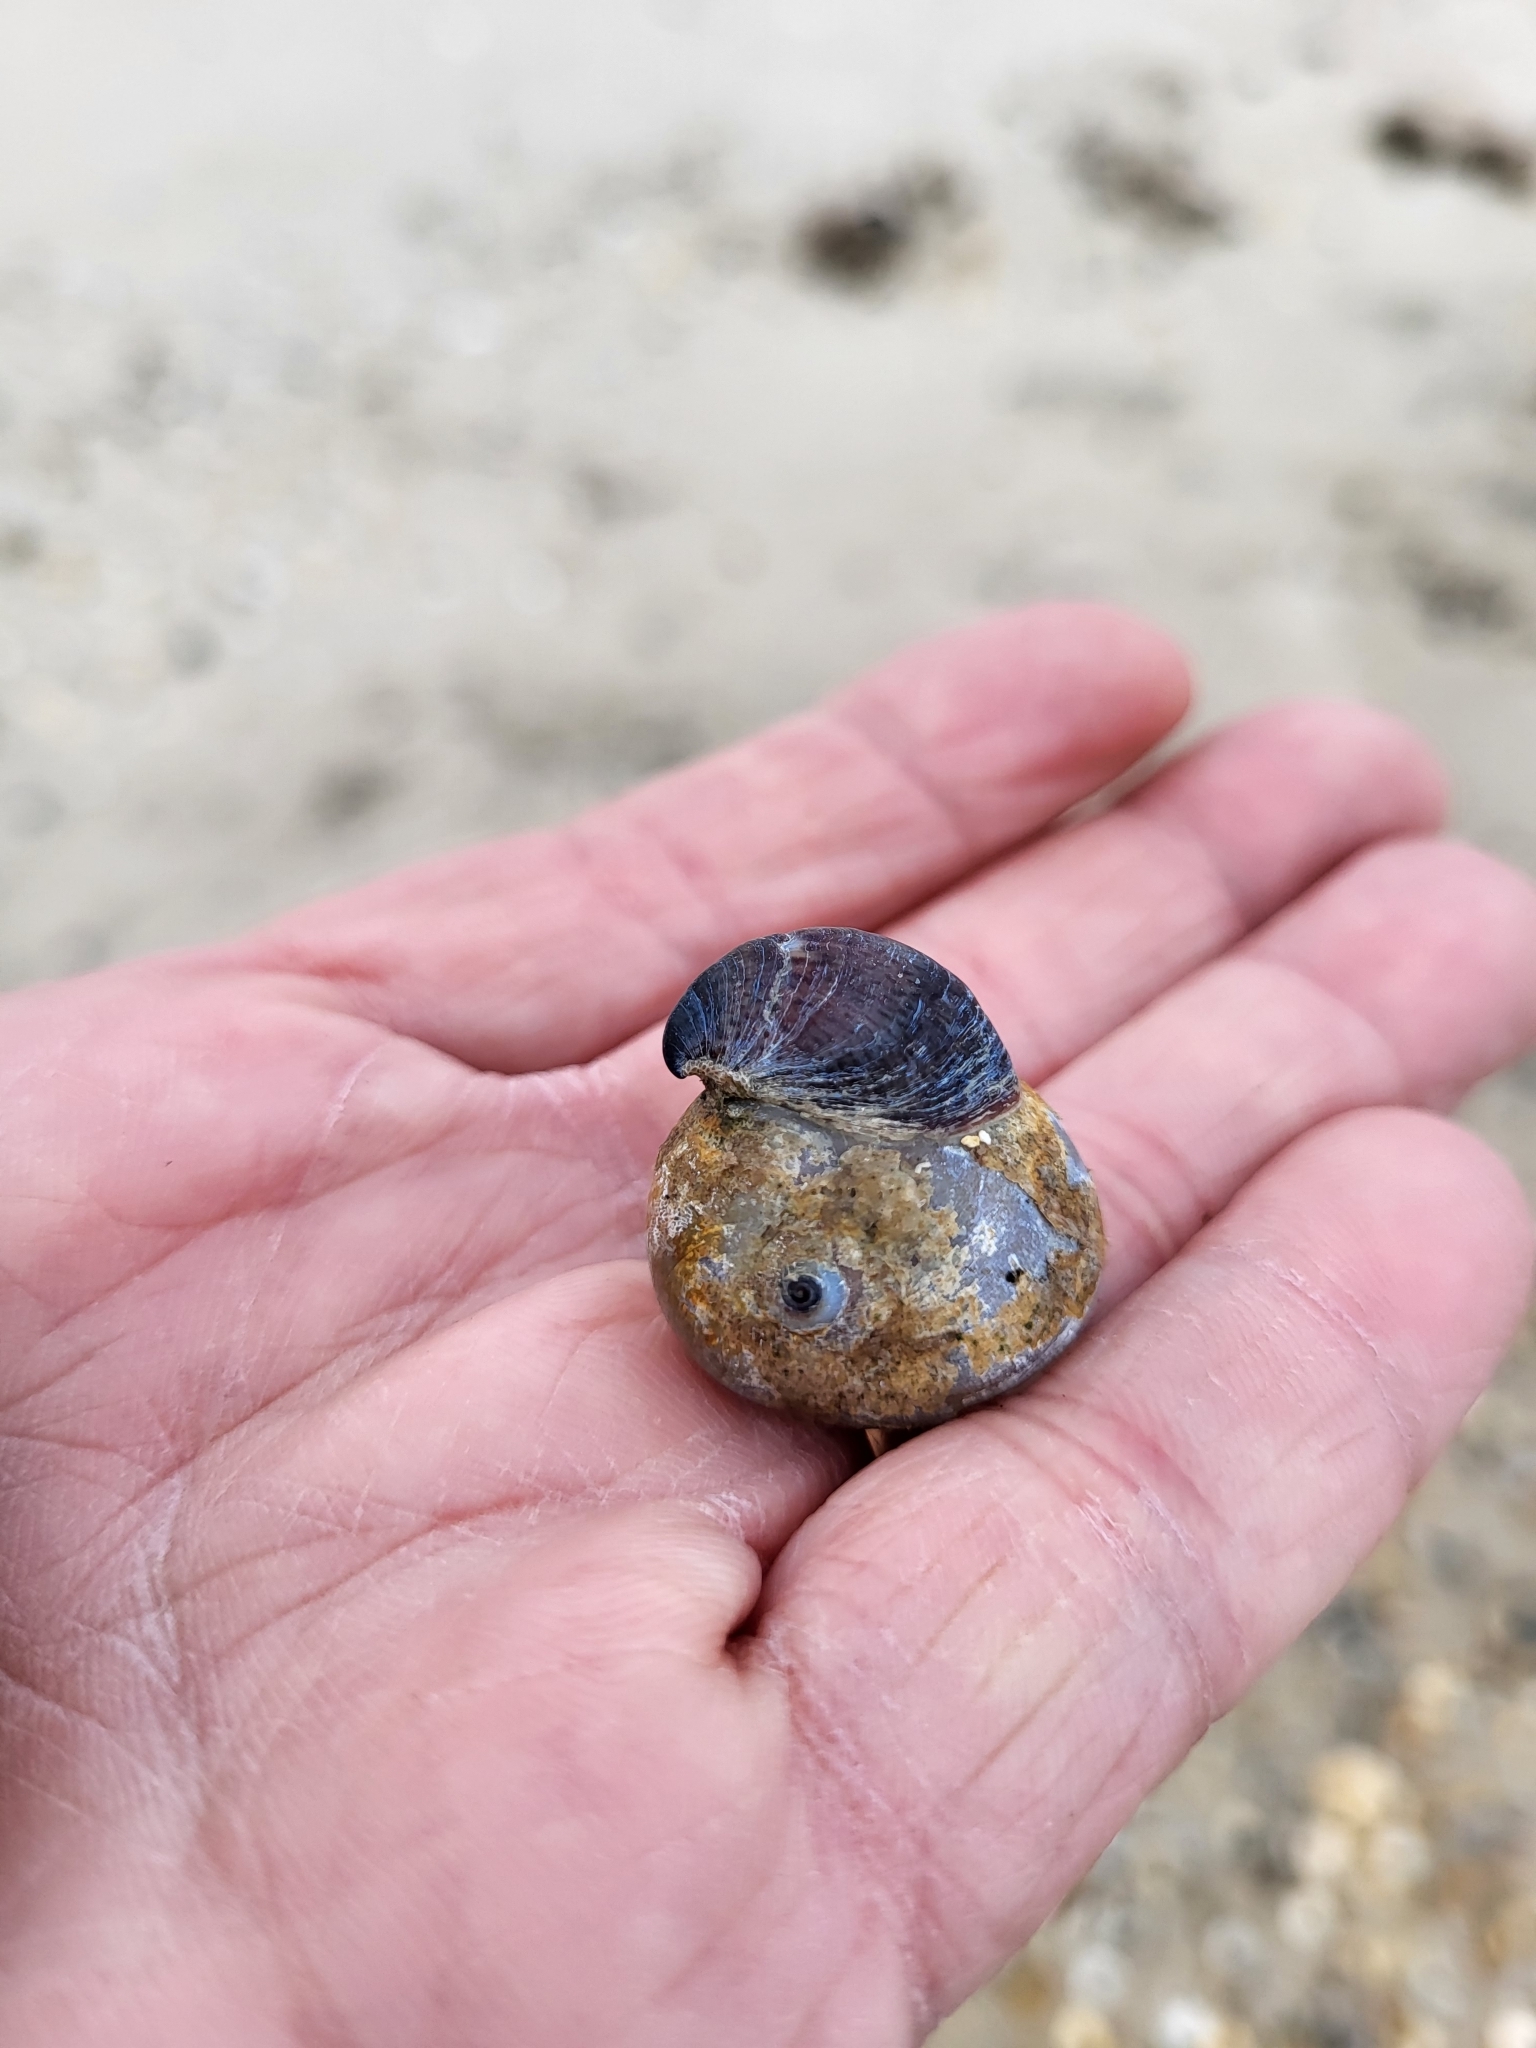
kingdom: Animalia
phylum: Mollusca
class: Gastropoda
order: Littorinimorpha
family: Naticidae
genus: Neverita
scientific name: Neverita duplicata
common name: Lobed moonsnail
